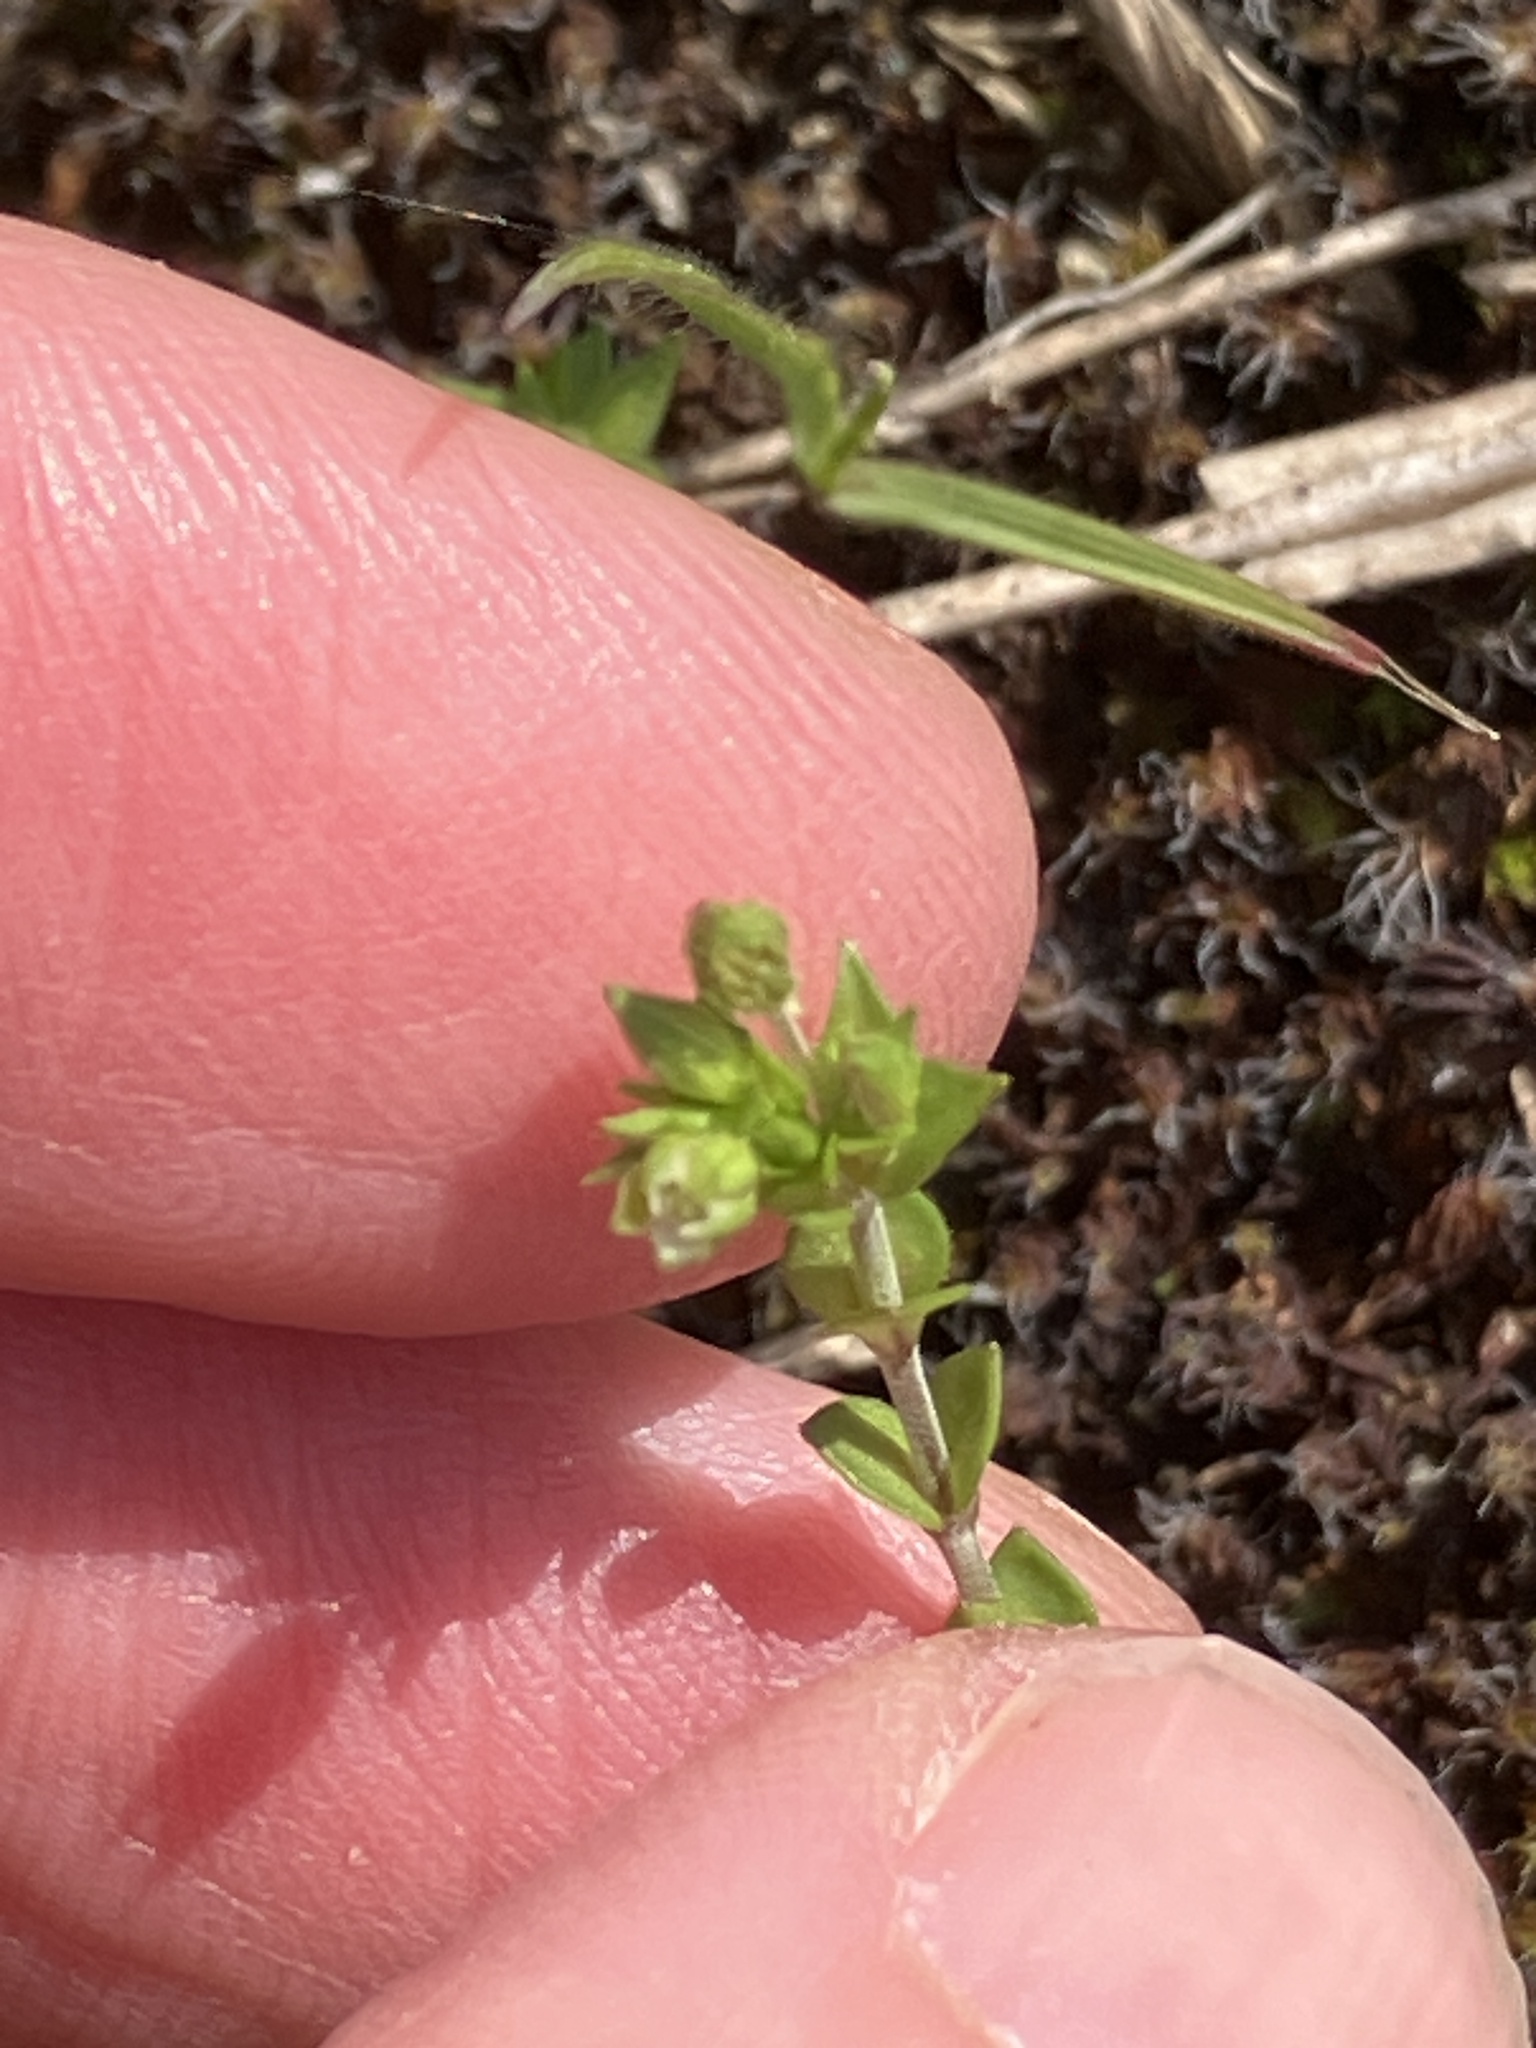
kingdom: Plantae
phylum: Tracheophyta
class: Magnoliopsida
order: Caryophyllales
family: Caryophyllaceae
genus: Arenaria
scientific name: Arenaria serpyllifolia
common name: Thyme-leaved sandwort
